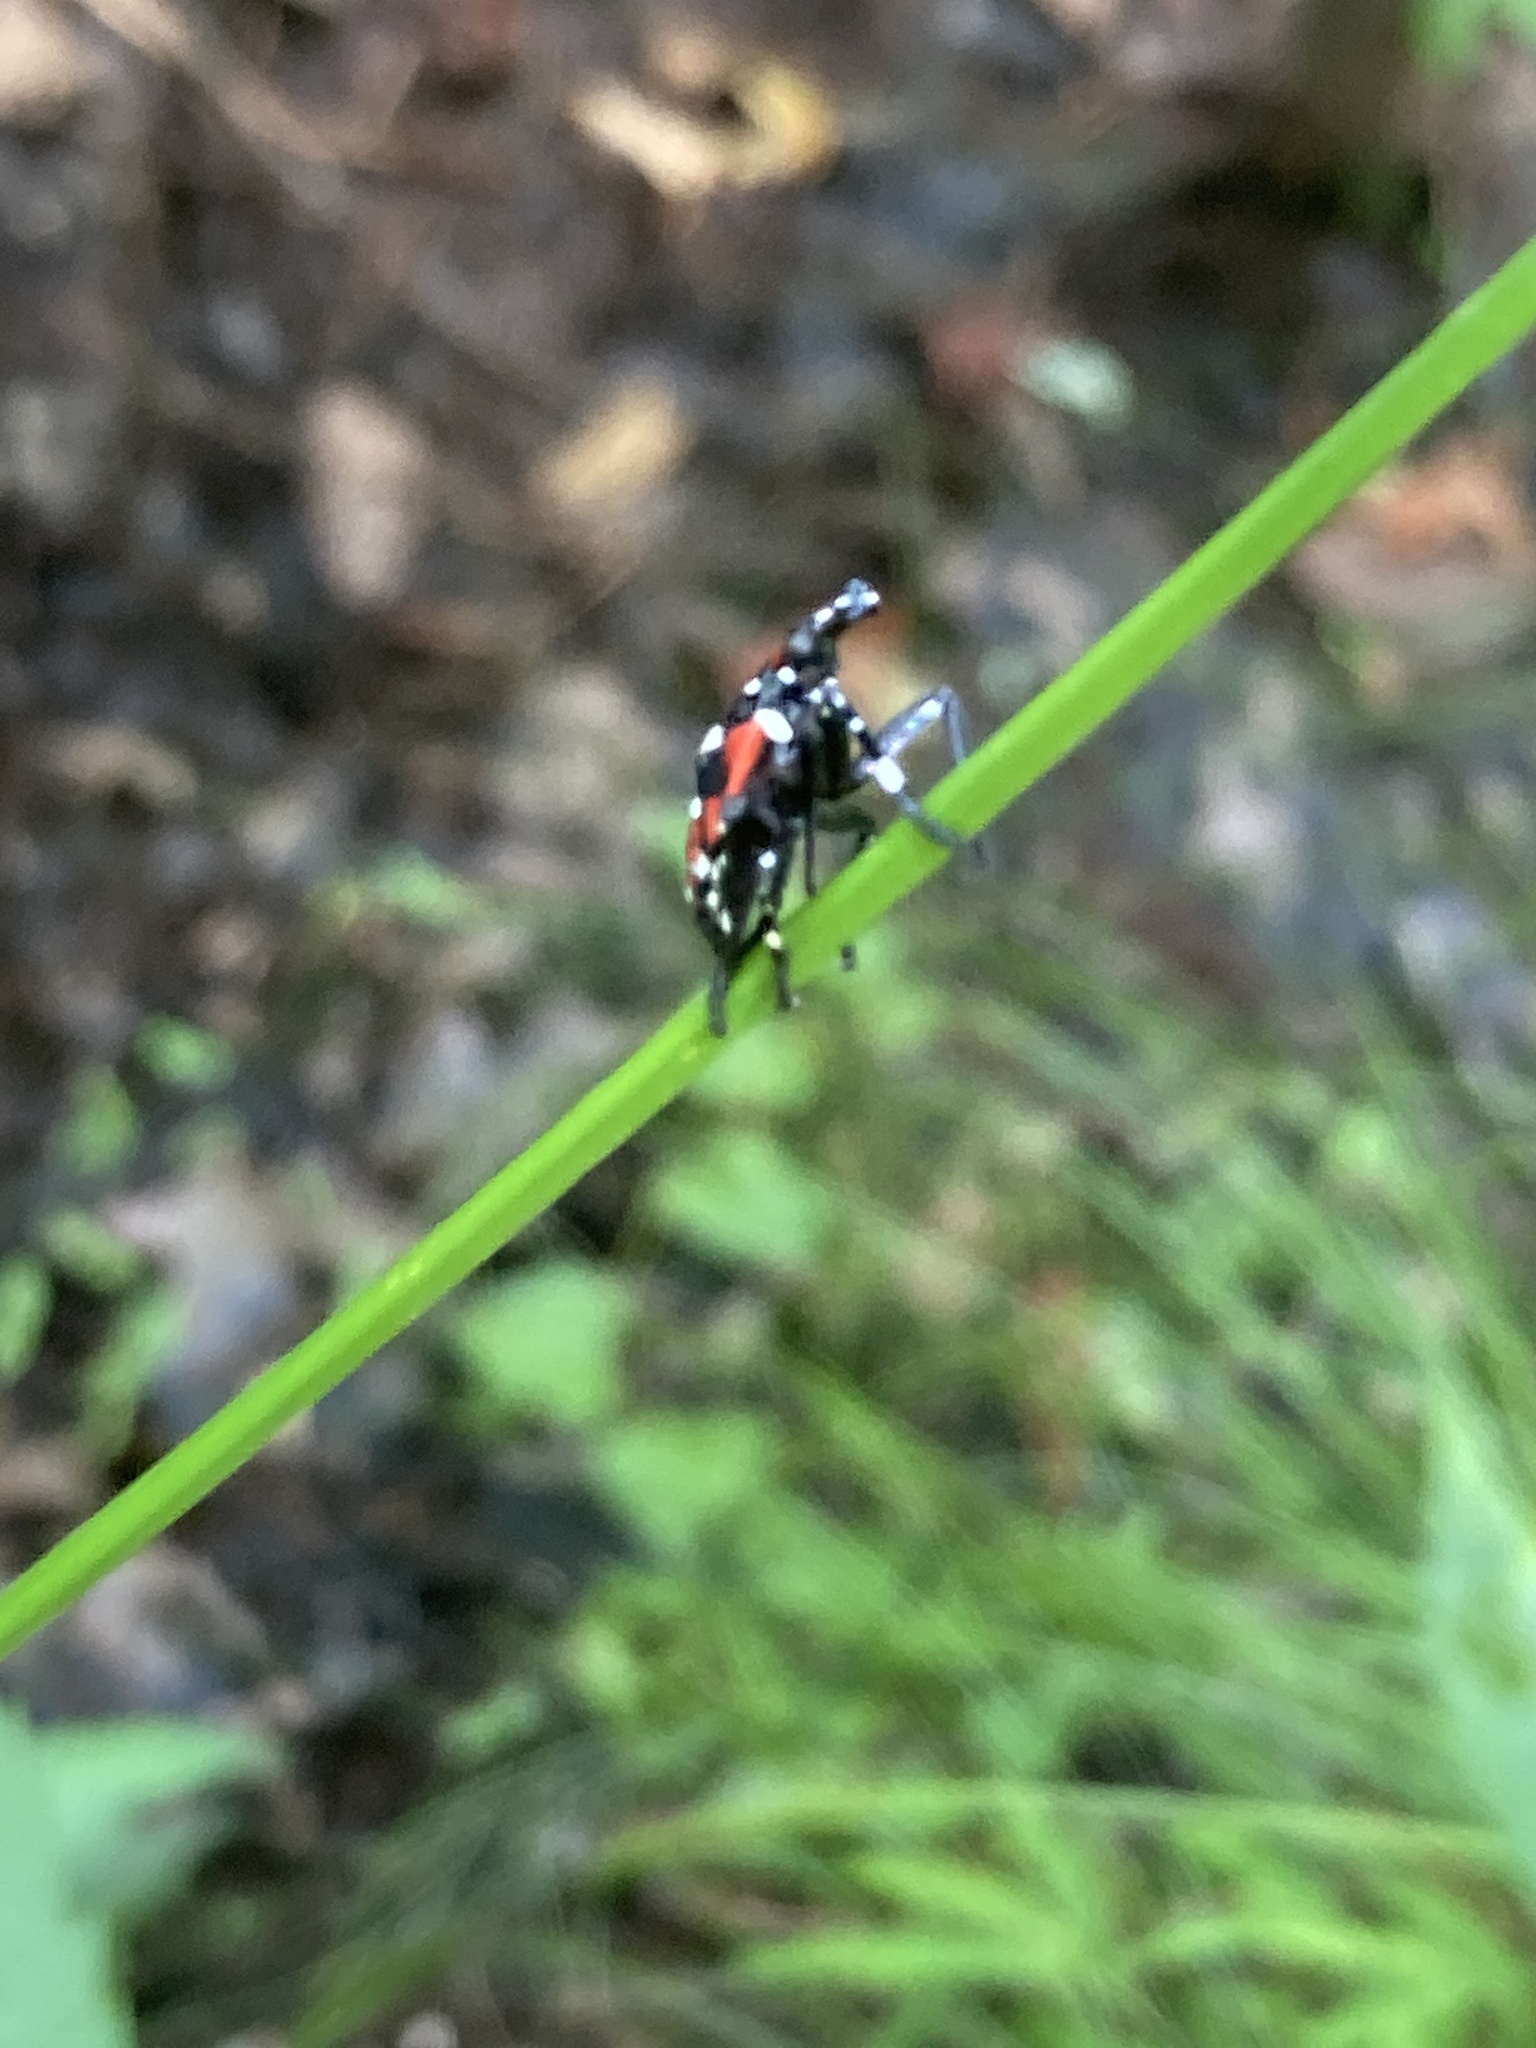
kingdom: Animalia
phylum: Arthropoda
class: Insecta
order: Hemiptera
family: Fulgoridae
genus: Lycorma
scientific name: Lycorma delicatula
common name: Spotted lanternfly
